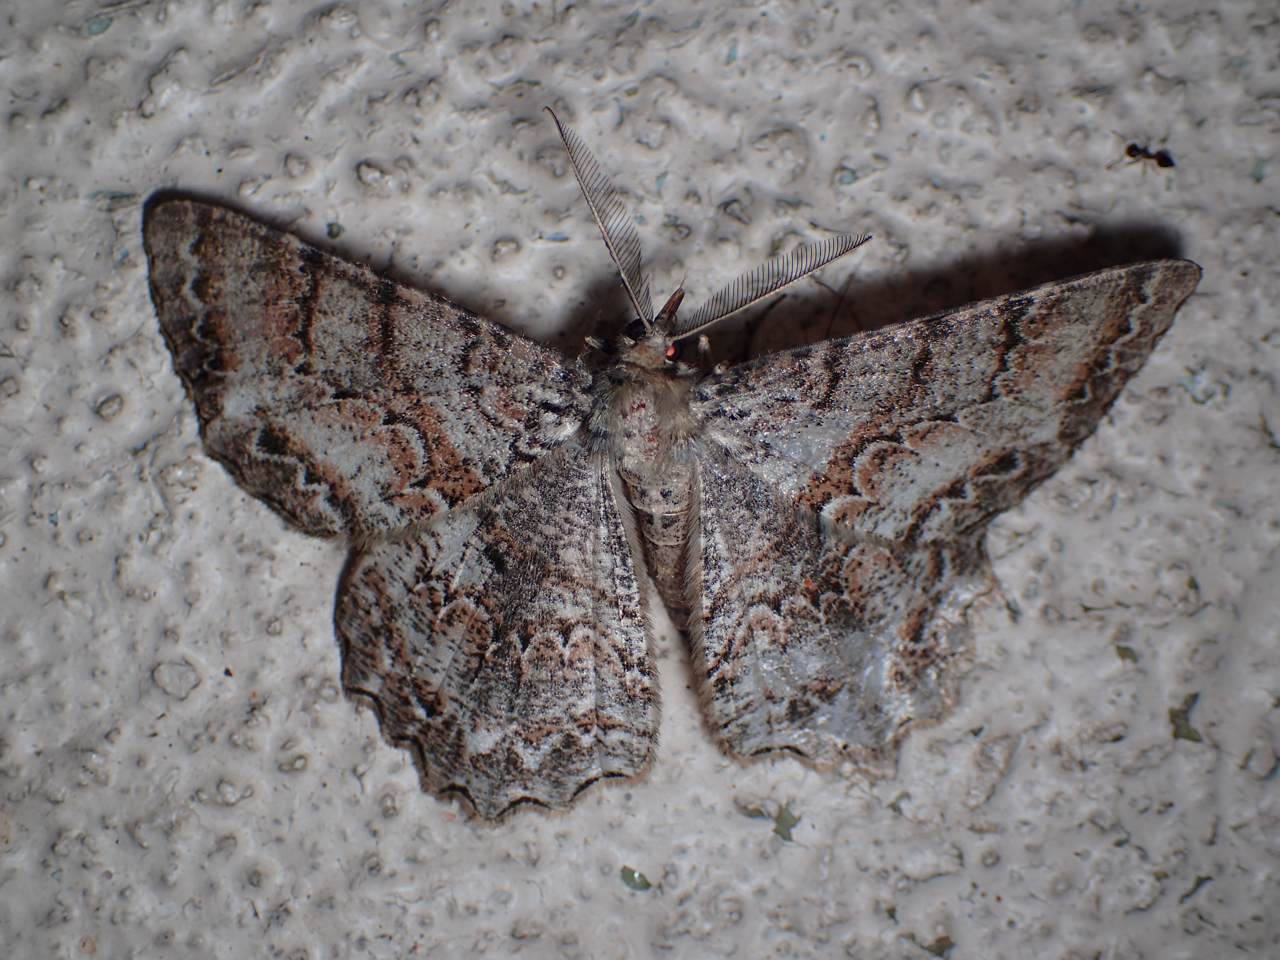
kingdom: Animalia
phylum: Arthropoda
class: Insecta
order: Lepidoptera
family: Geometridae
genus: Epimecis
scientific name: Epimecis hortaria
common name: Tulip-tree beauty
